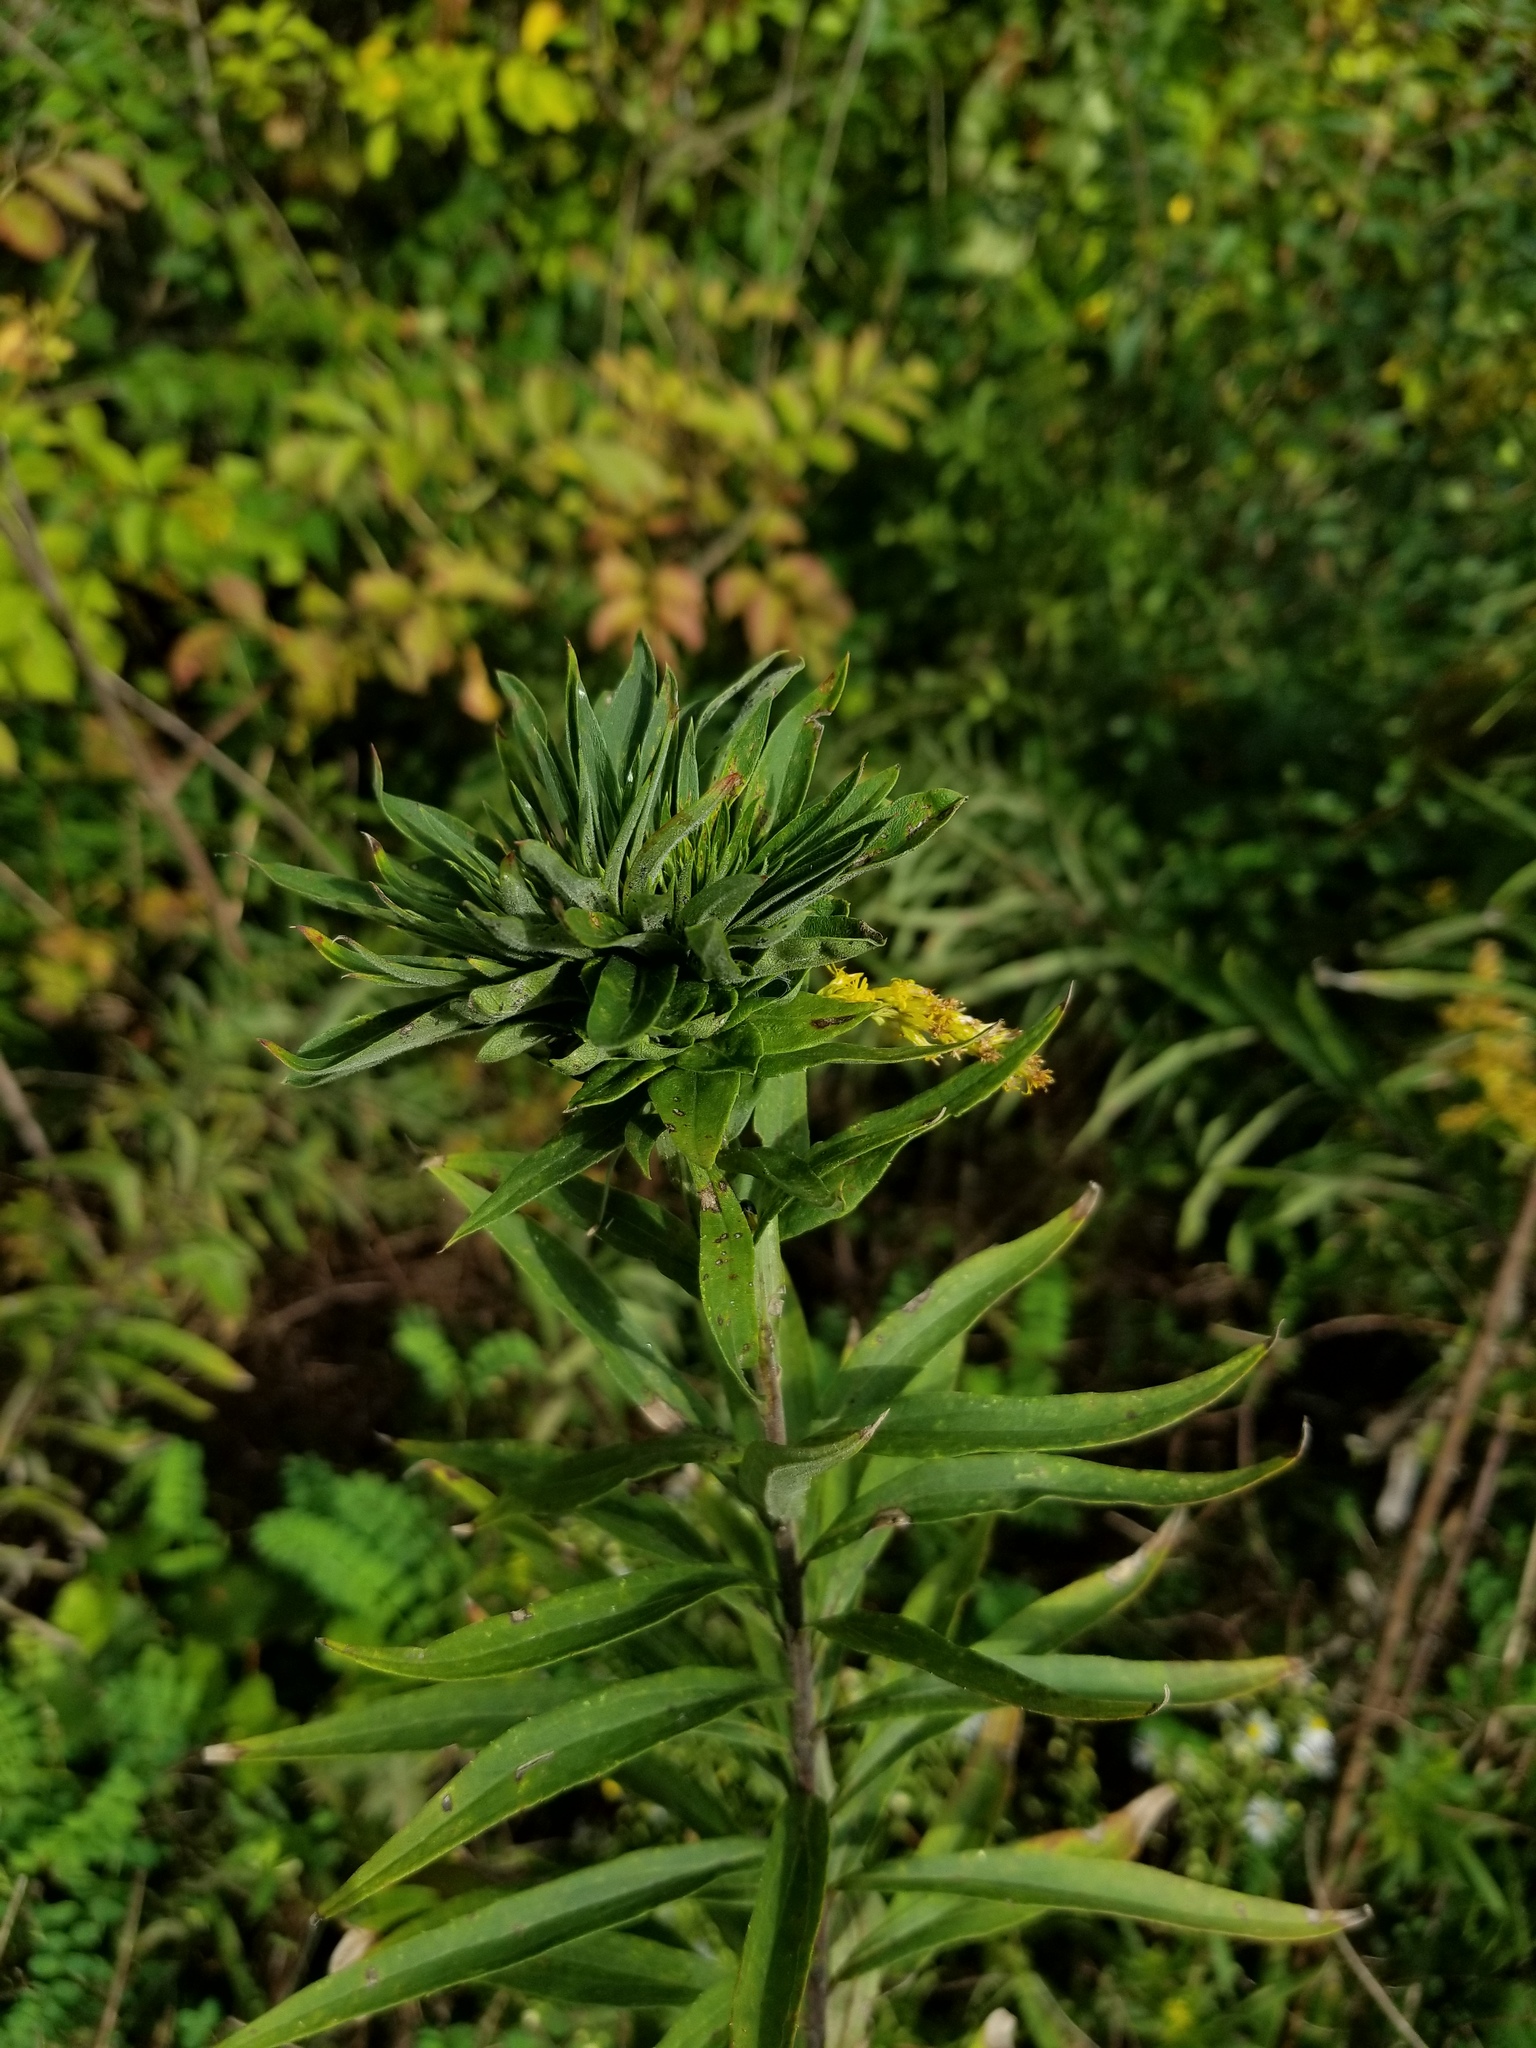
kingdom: Animalia
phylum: Arthropoda
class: Insecta
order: Diptera
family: Cecidomyiidae
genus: Rhopalomyia
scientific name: Rhopalomyia solidaginis
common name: Goldenrod bunch gall midge
